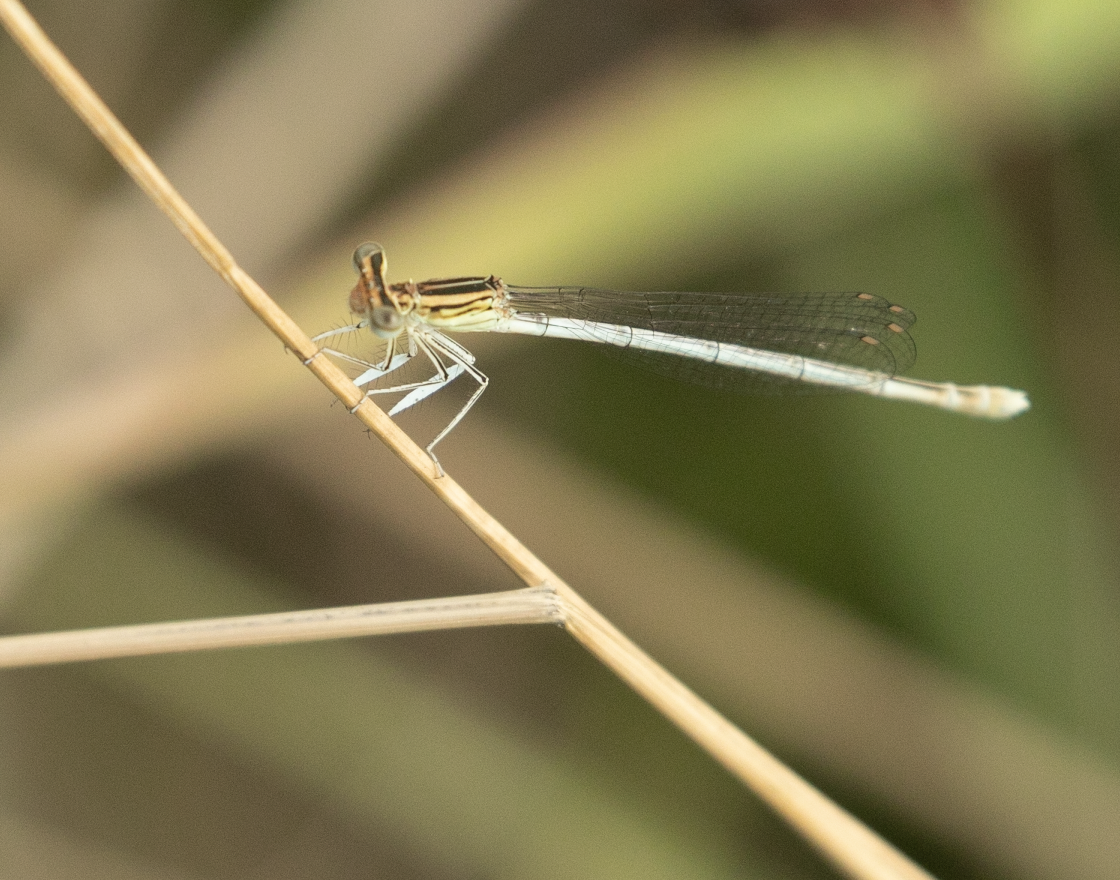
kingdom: Animalia
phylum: Arthropoda
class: Insecta
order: Odonata
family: Platycnemididae
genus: Platycnemis
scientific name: Platycnemis pennipes
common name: White-legged damselfly
